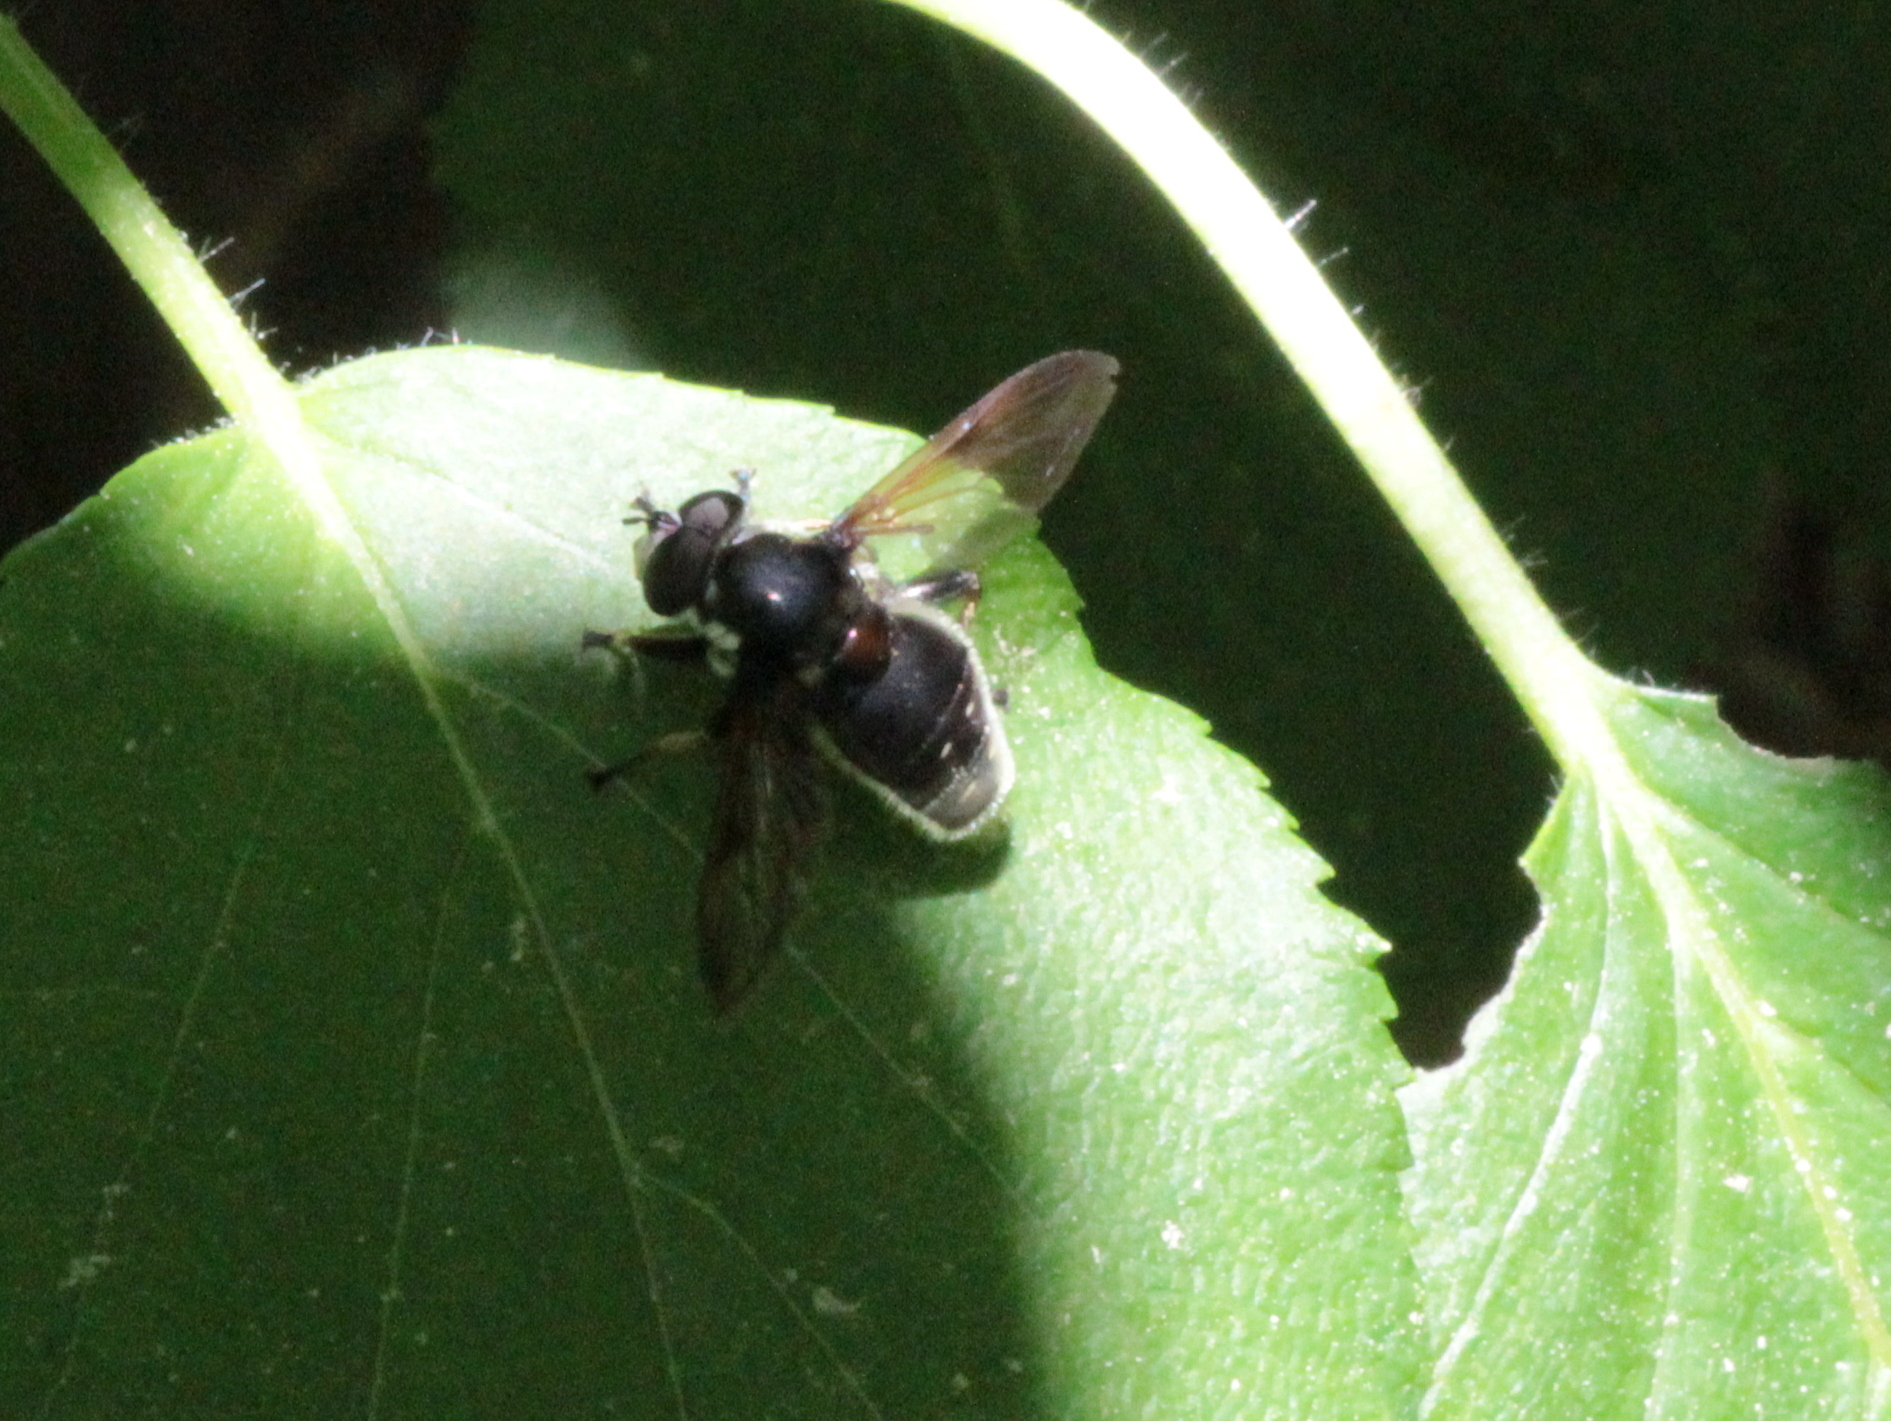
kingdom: Animalia
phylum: Arthropoda
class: Insecta
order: Diptera
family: Syrphidae
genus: Sericomyia
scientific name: Sericomyia militaris
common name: Narrow-banded pond fly
